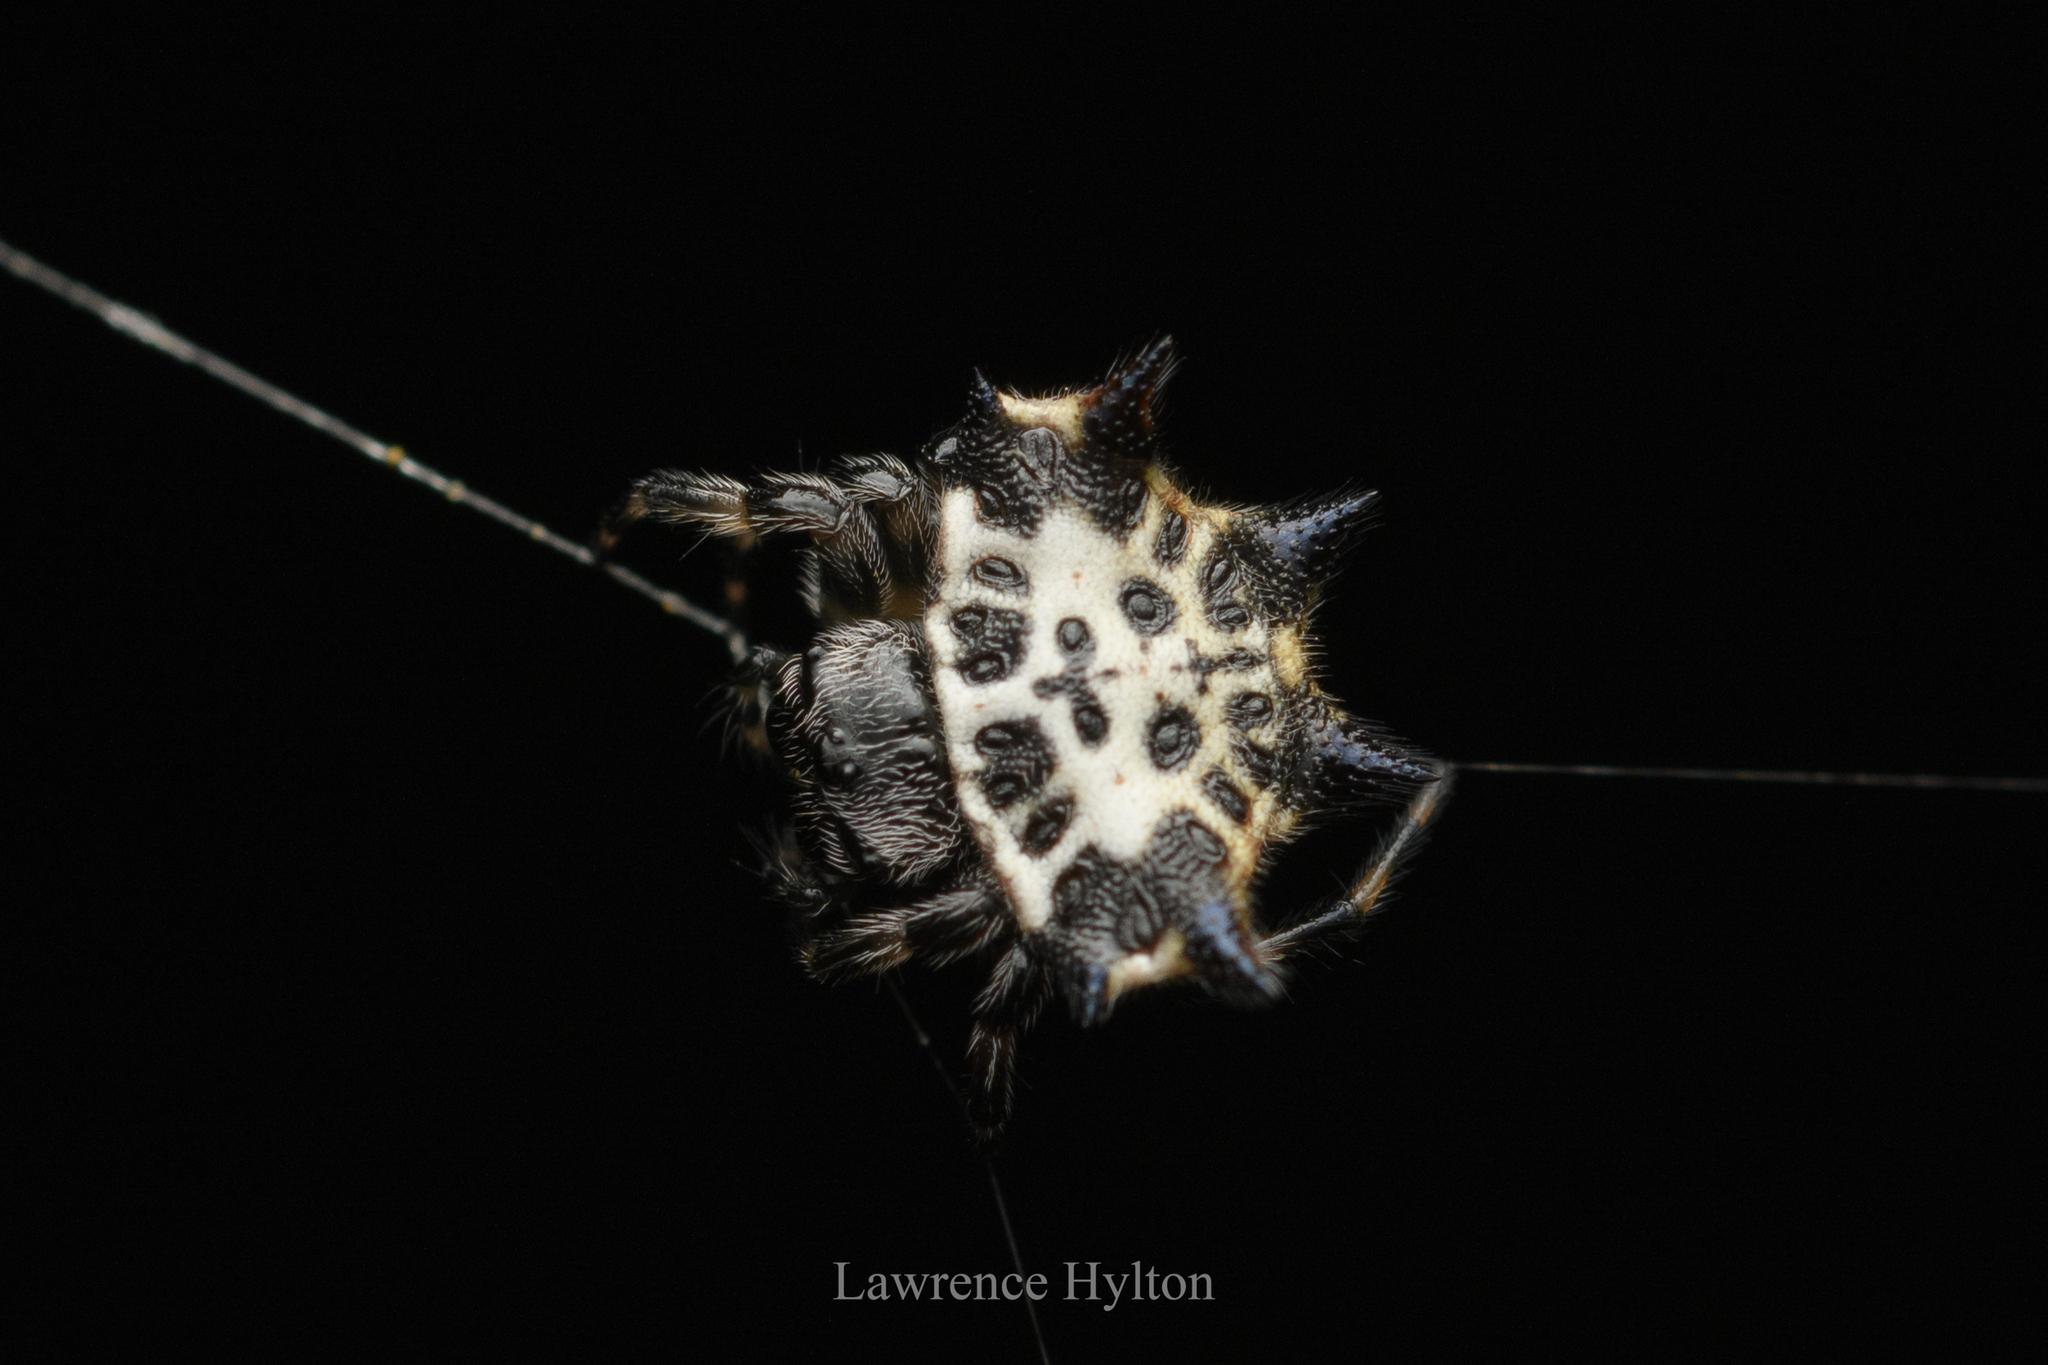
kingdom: Animalia
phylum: Arthropoda
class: Arachnida
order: Araneae
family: Araneidae
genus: Gasteracantha
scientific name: Gasteracantha kuhli
